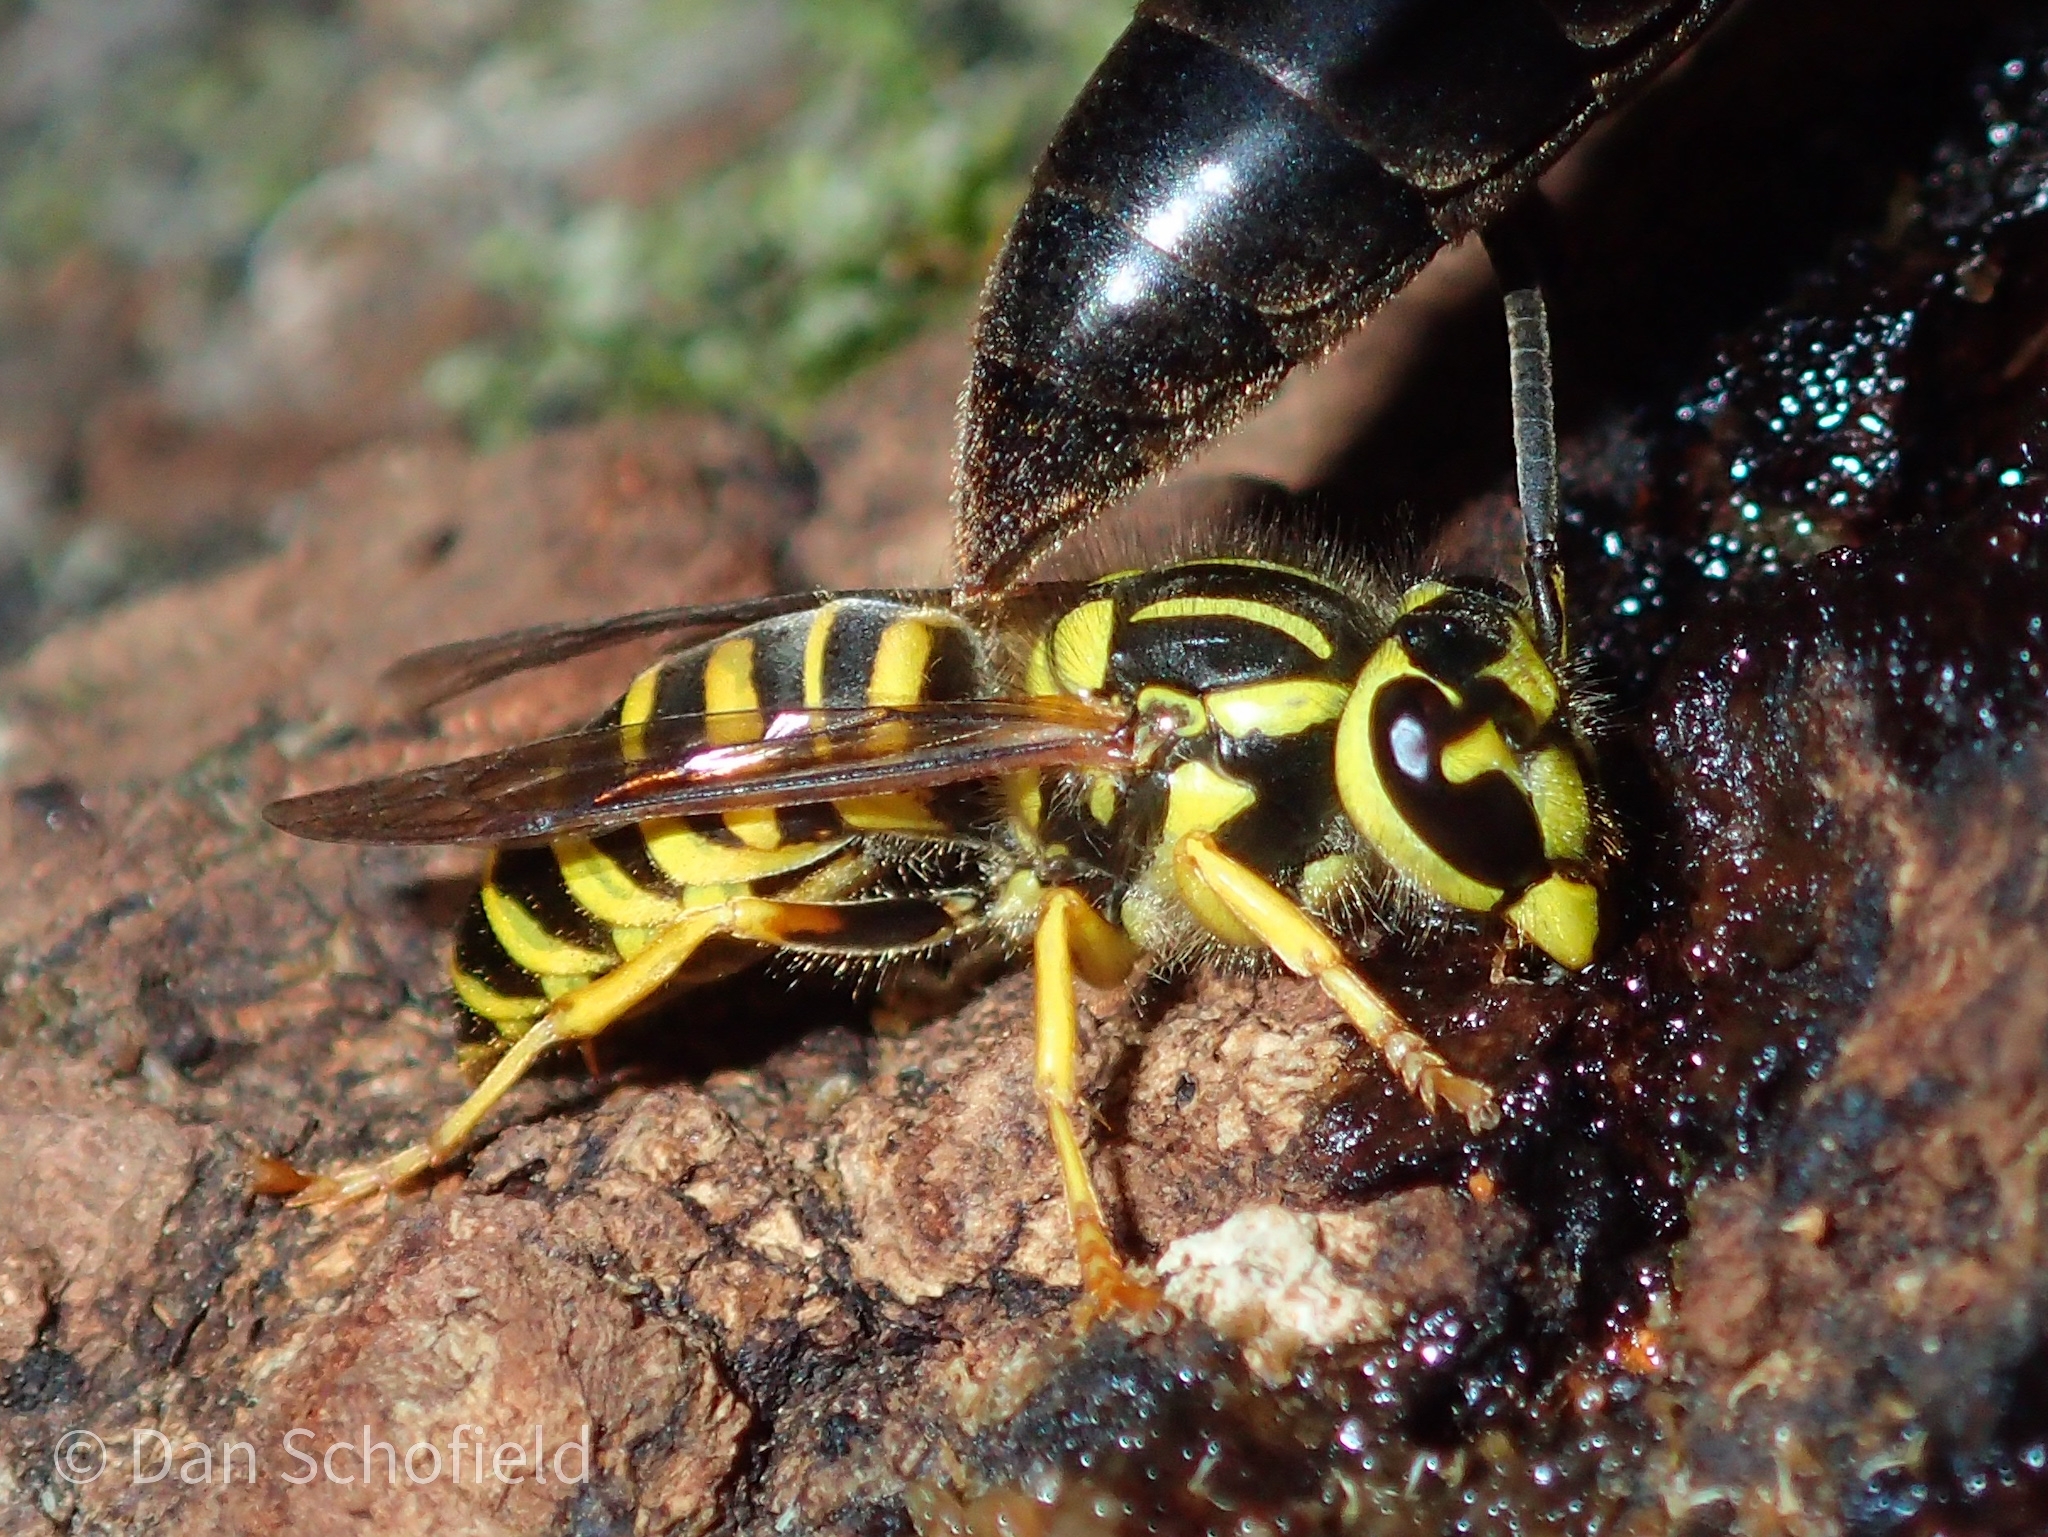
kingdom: Animalia
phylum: Arthropoda
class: Insecta
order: Hymenoptera
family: Vespidae
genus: Vespula
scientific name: Vespula squamosa
